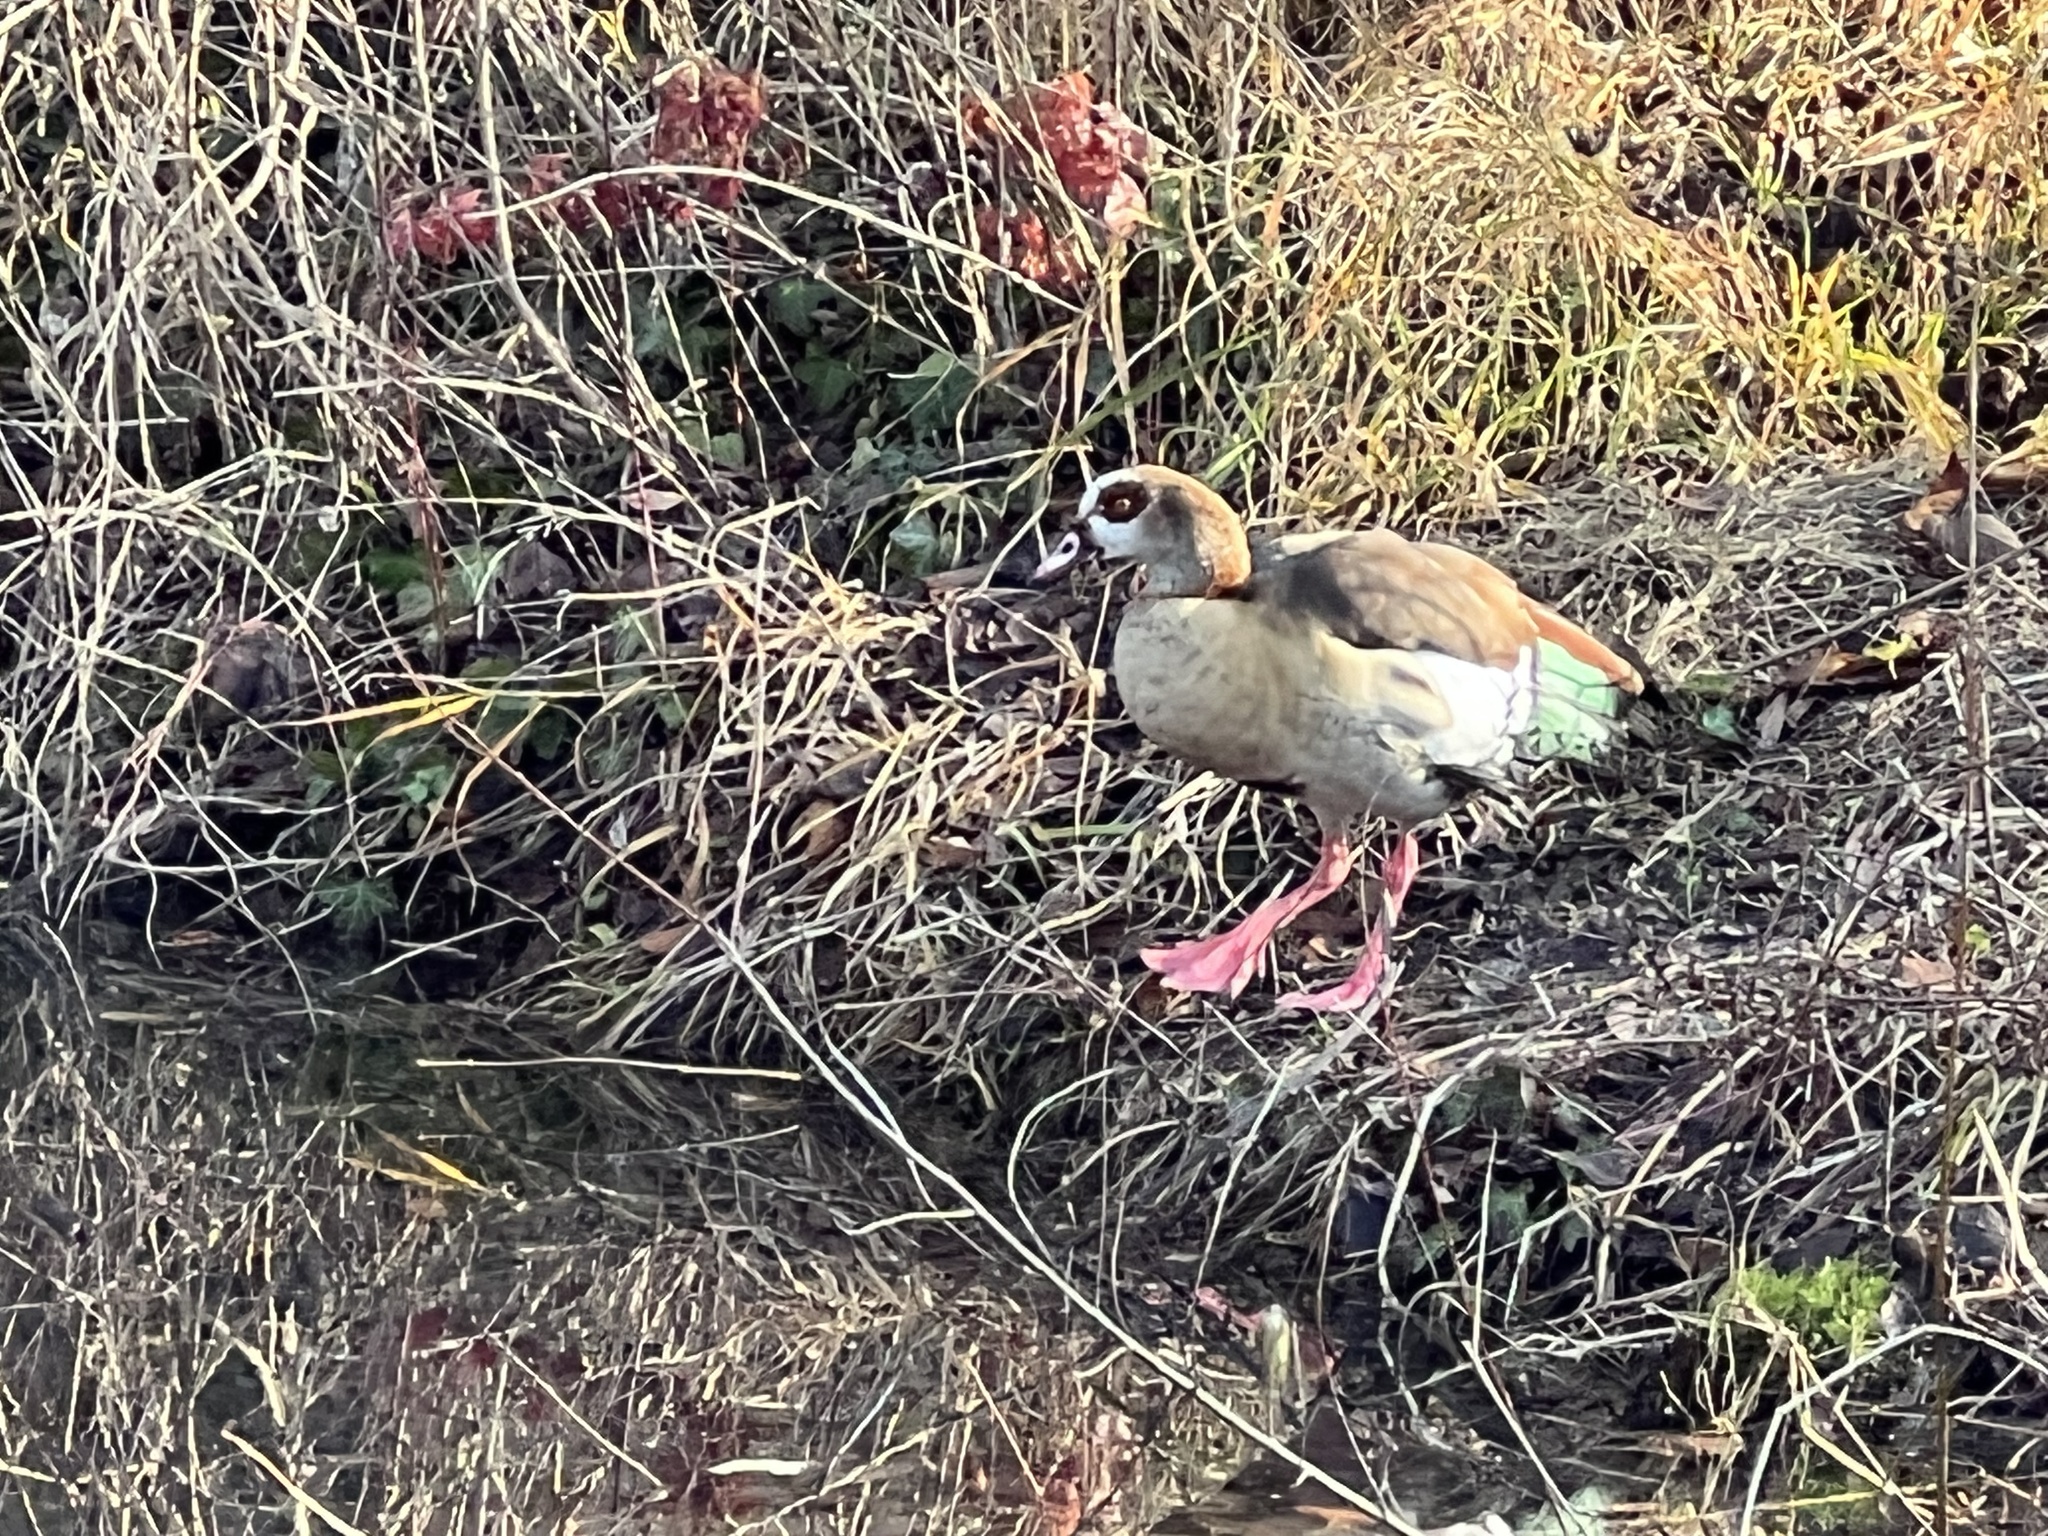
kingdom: Animalia
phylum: Chordata
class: Aves
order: Anseriformes
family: Anatidae
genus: Alopochen
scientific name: Alopochen aegyptiaca
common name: Egyptian goose
